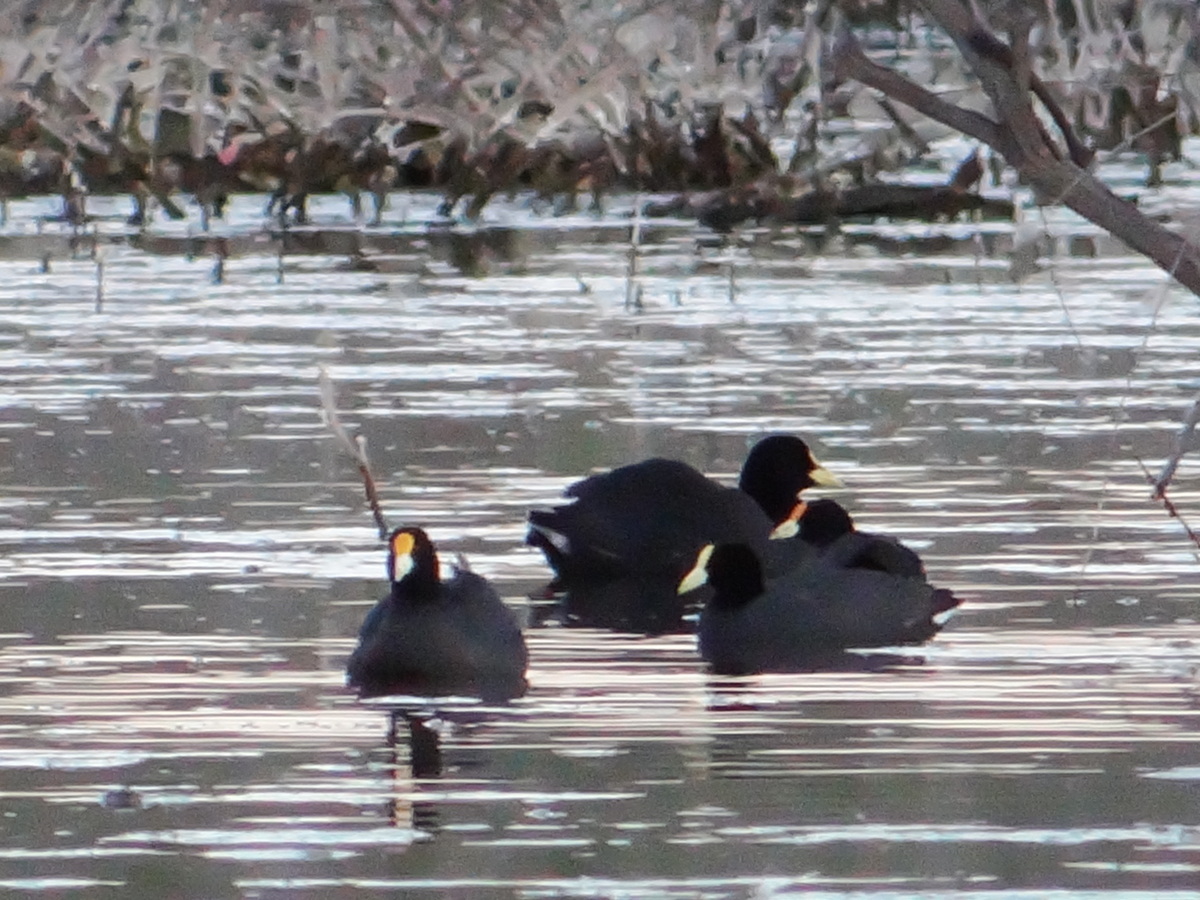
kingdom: Animalia
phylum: Chordata
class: Aves
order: Gruiformes
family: Rallidae
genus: Fulica
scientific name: Fulica leucoptera
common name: White-winged coot
